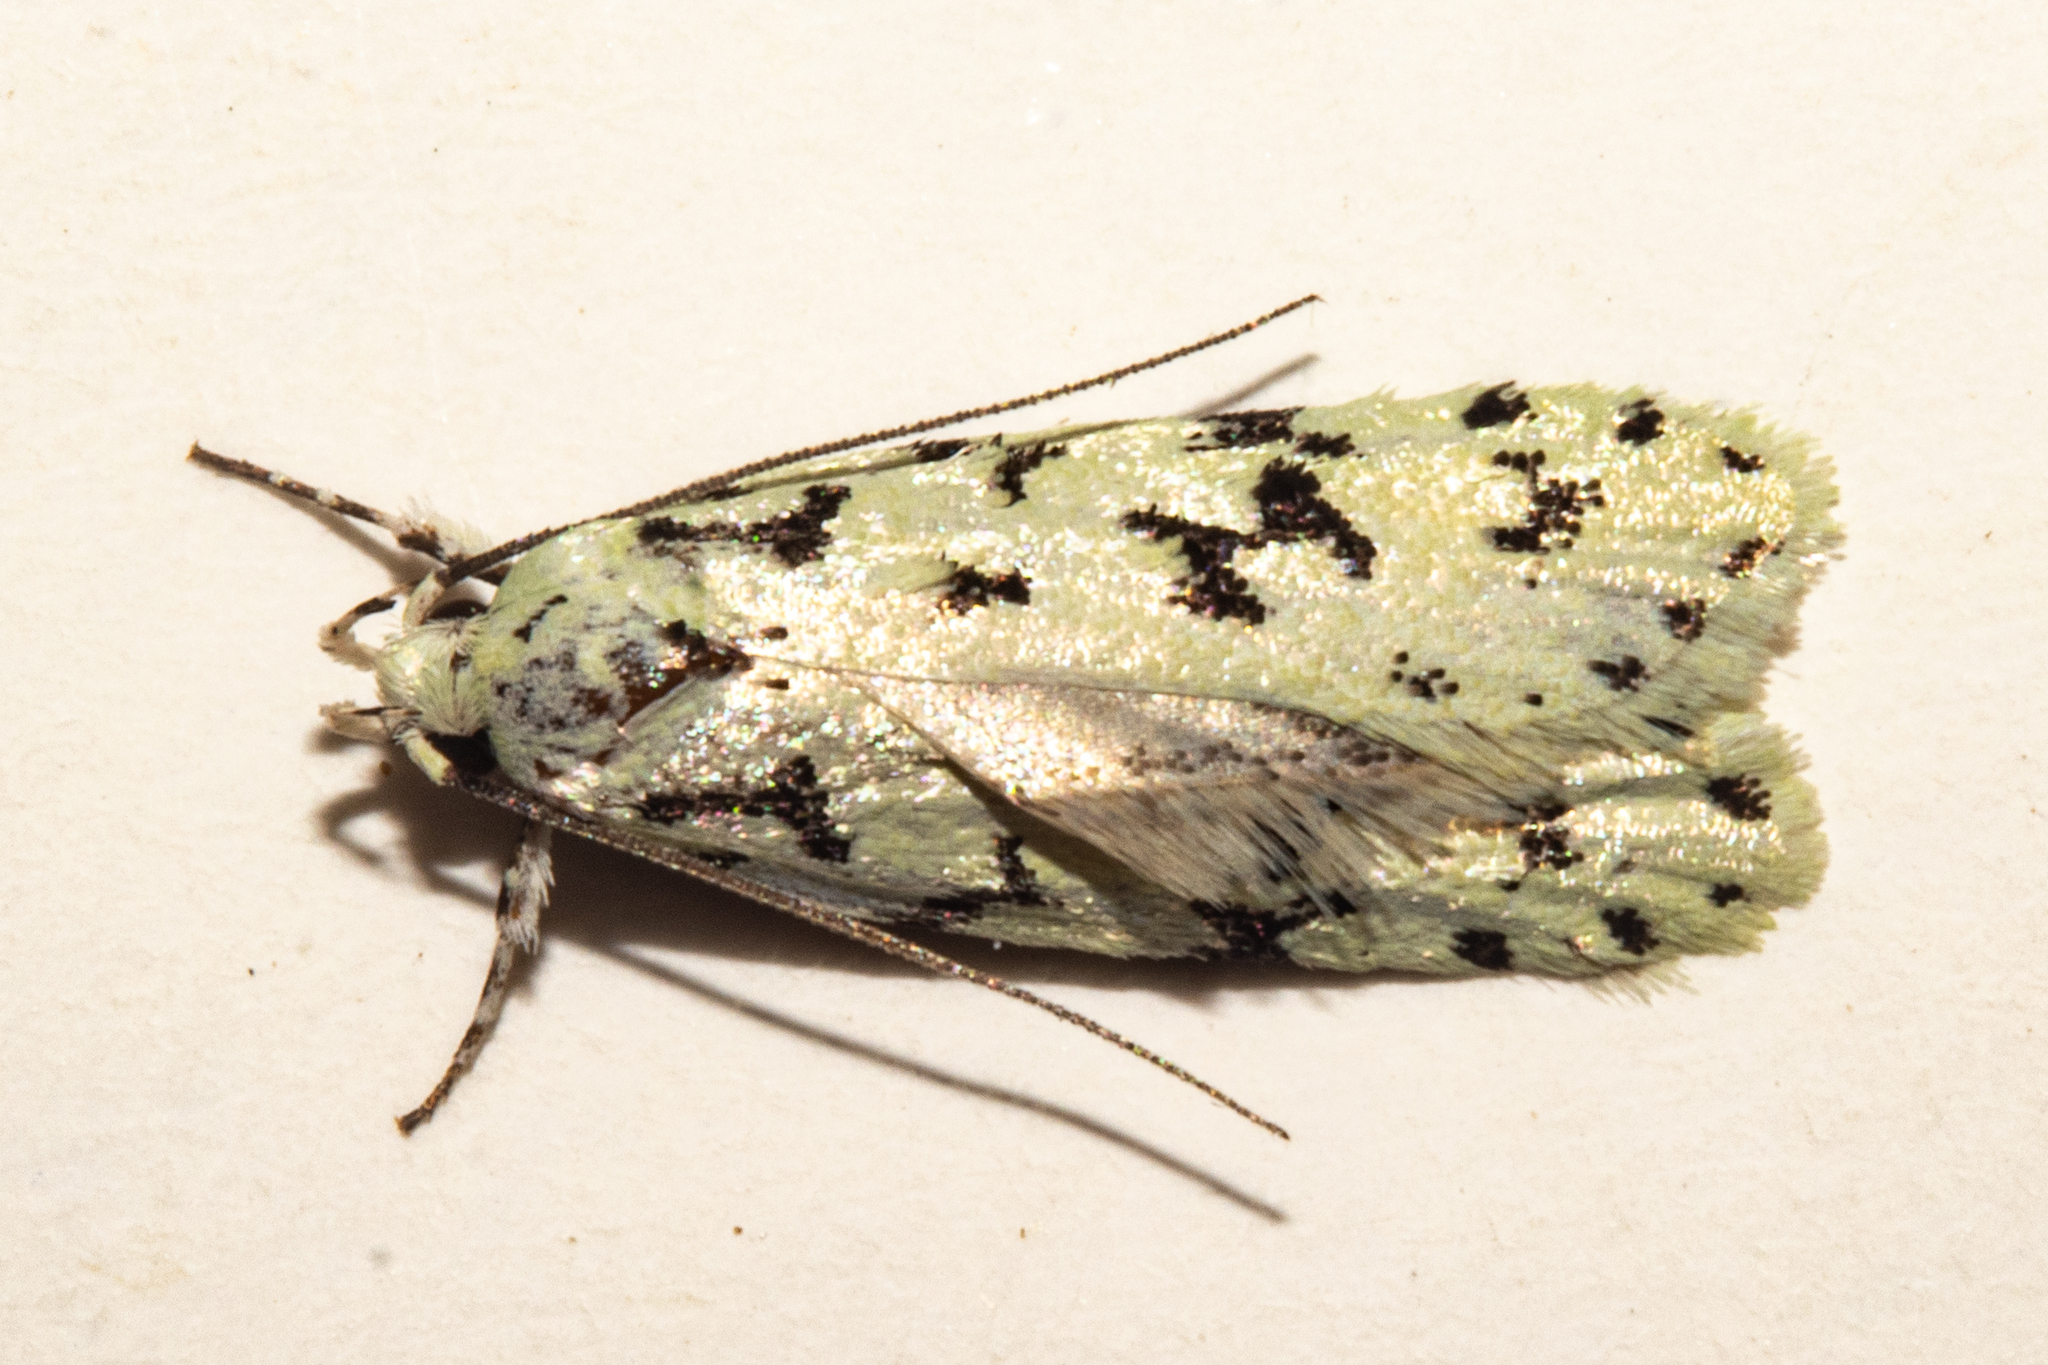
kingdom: Animalia
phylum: Arthropoda
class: Insecta
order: Lepidoptera
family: Oecophoridae
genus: Izatha
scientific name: Izatha huttoni
